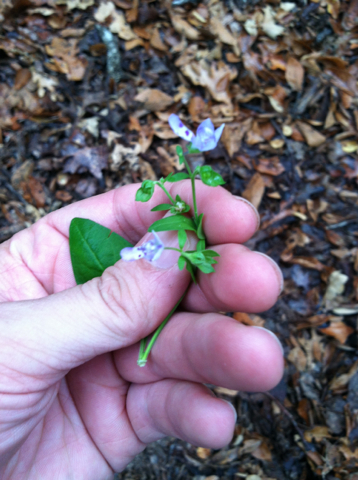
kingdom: Plantae
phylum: Tracheophyta
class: Magnoliopsida
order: Lamiales
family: Lamiaceae
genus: Trichostema
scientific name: Trichostema dichotomum
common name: Bastard pennyroyal
